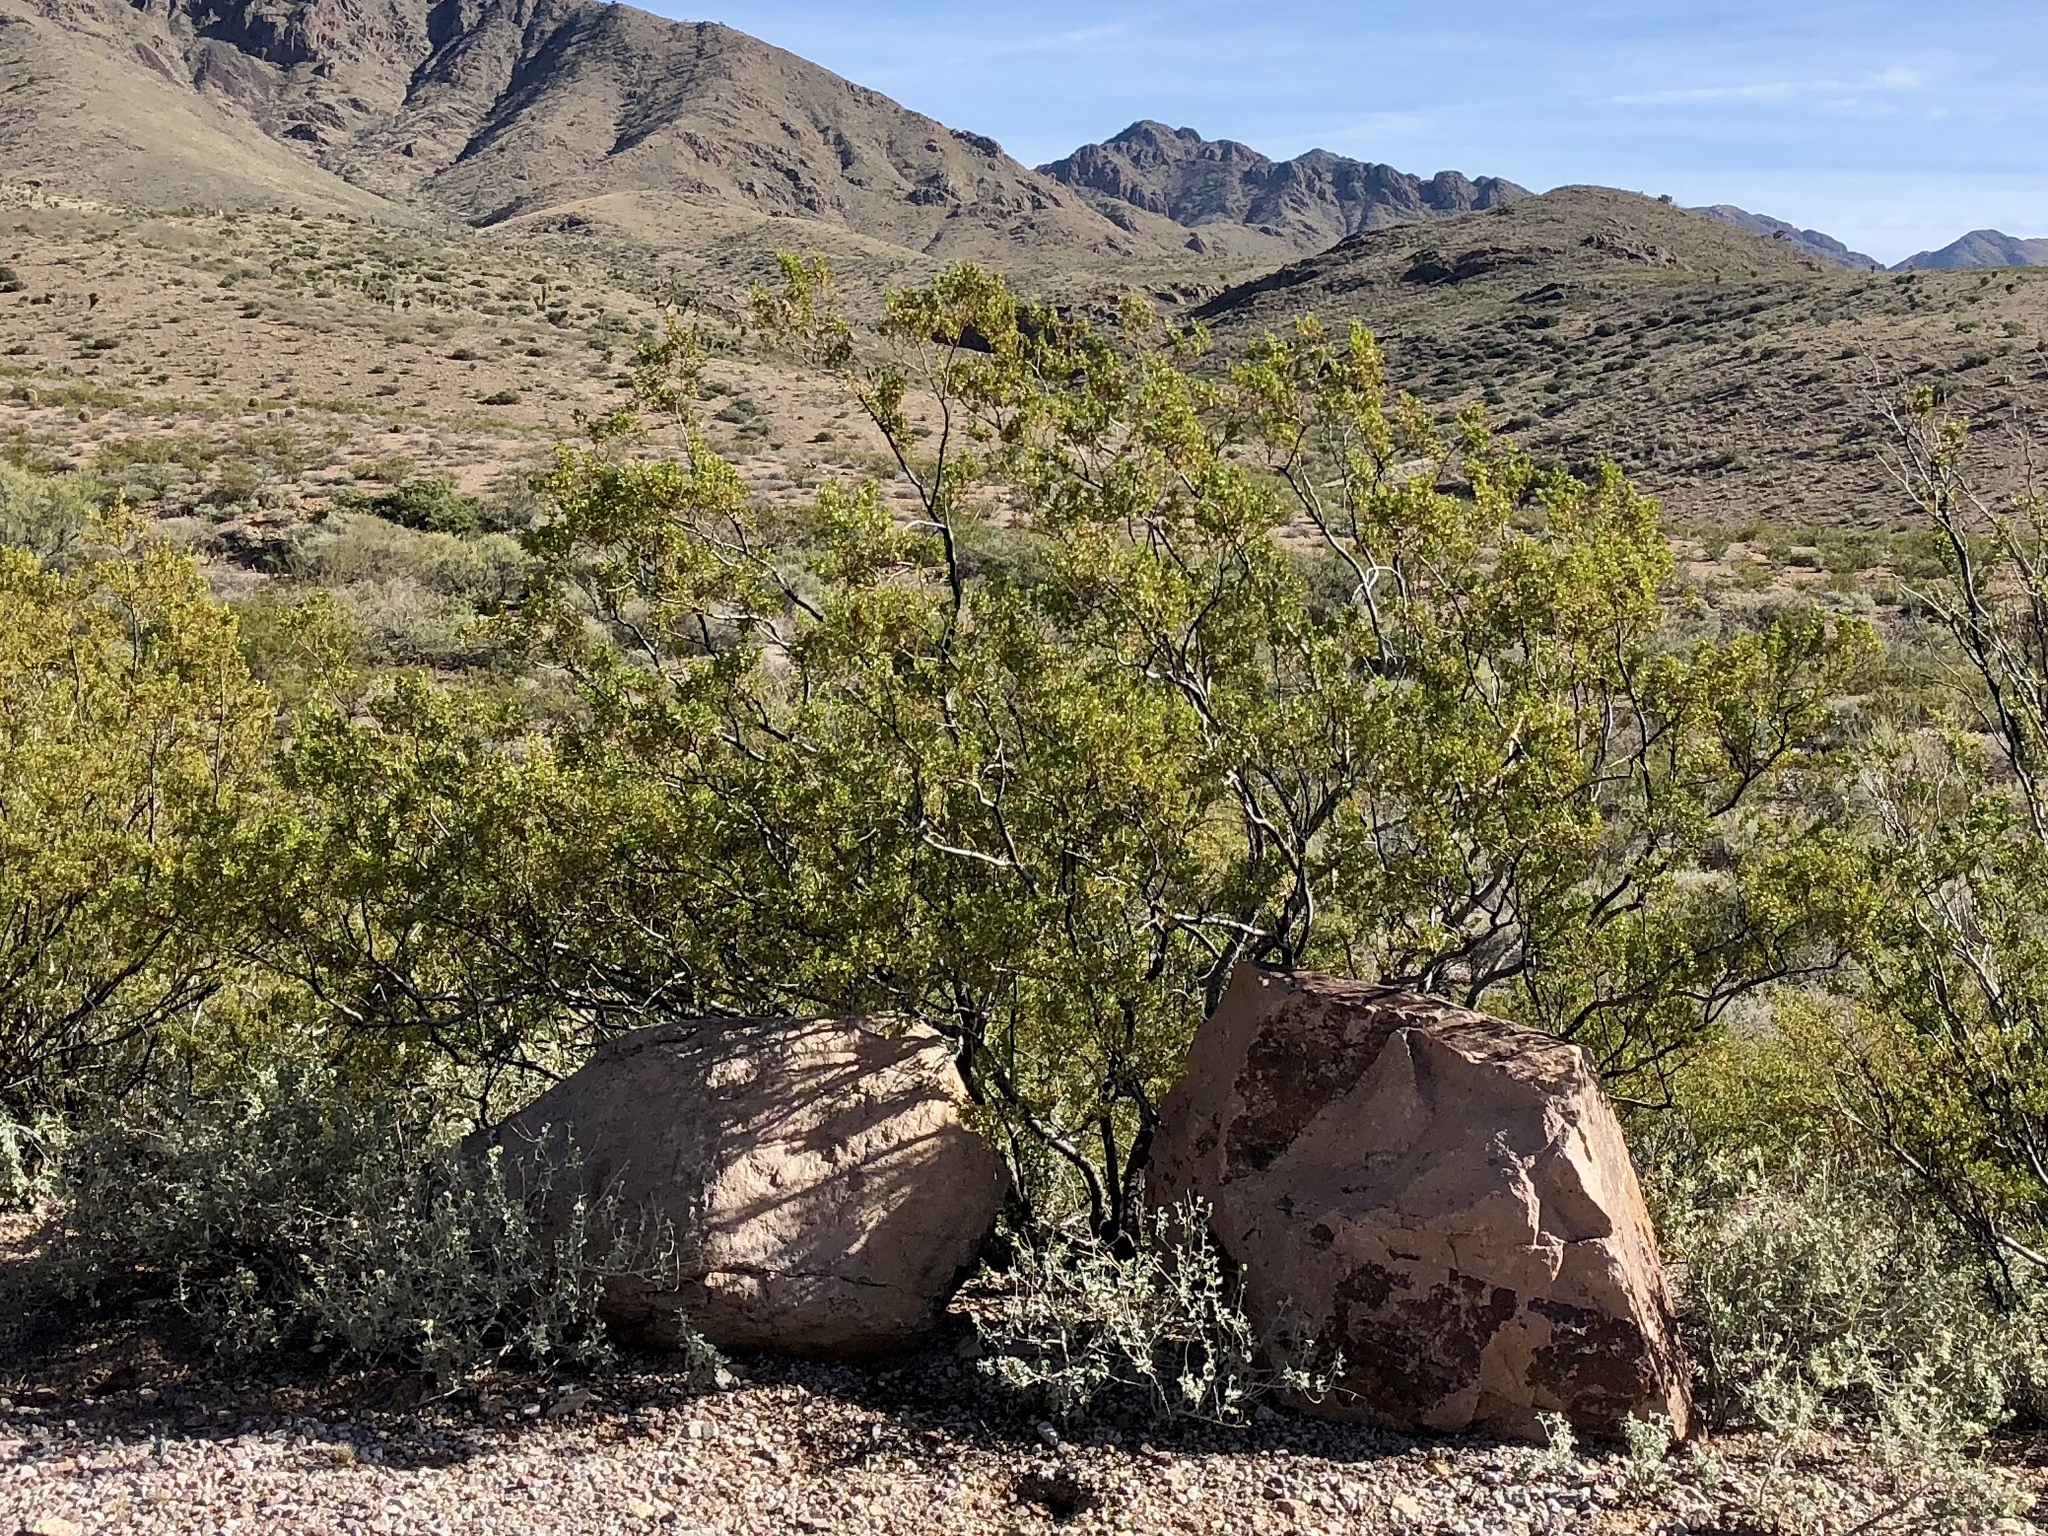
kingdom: Plantae
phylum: Tracheophyta
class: Magnoliopsida
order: Zygophyllales
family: Zygophyllaceae
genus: Larrea
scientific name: Larrea tridentata
